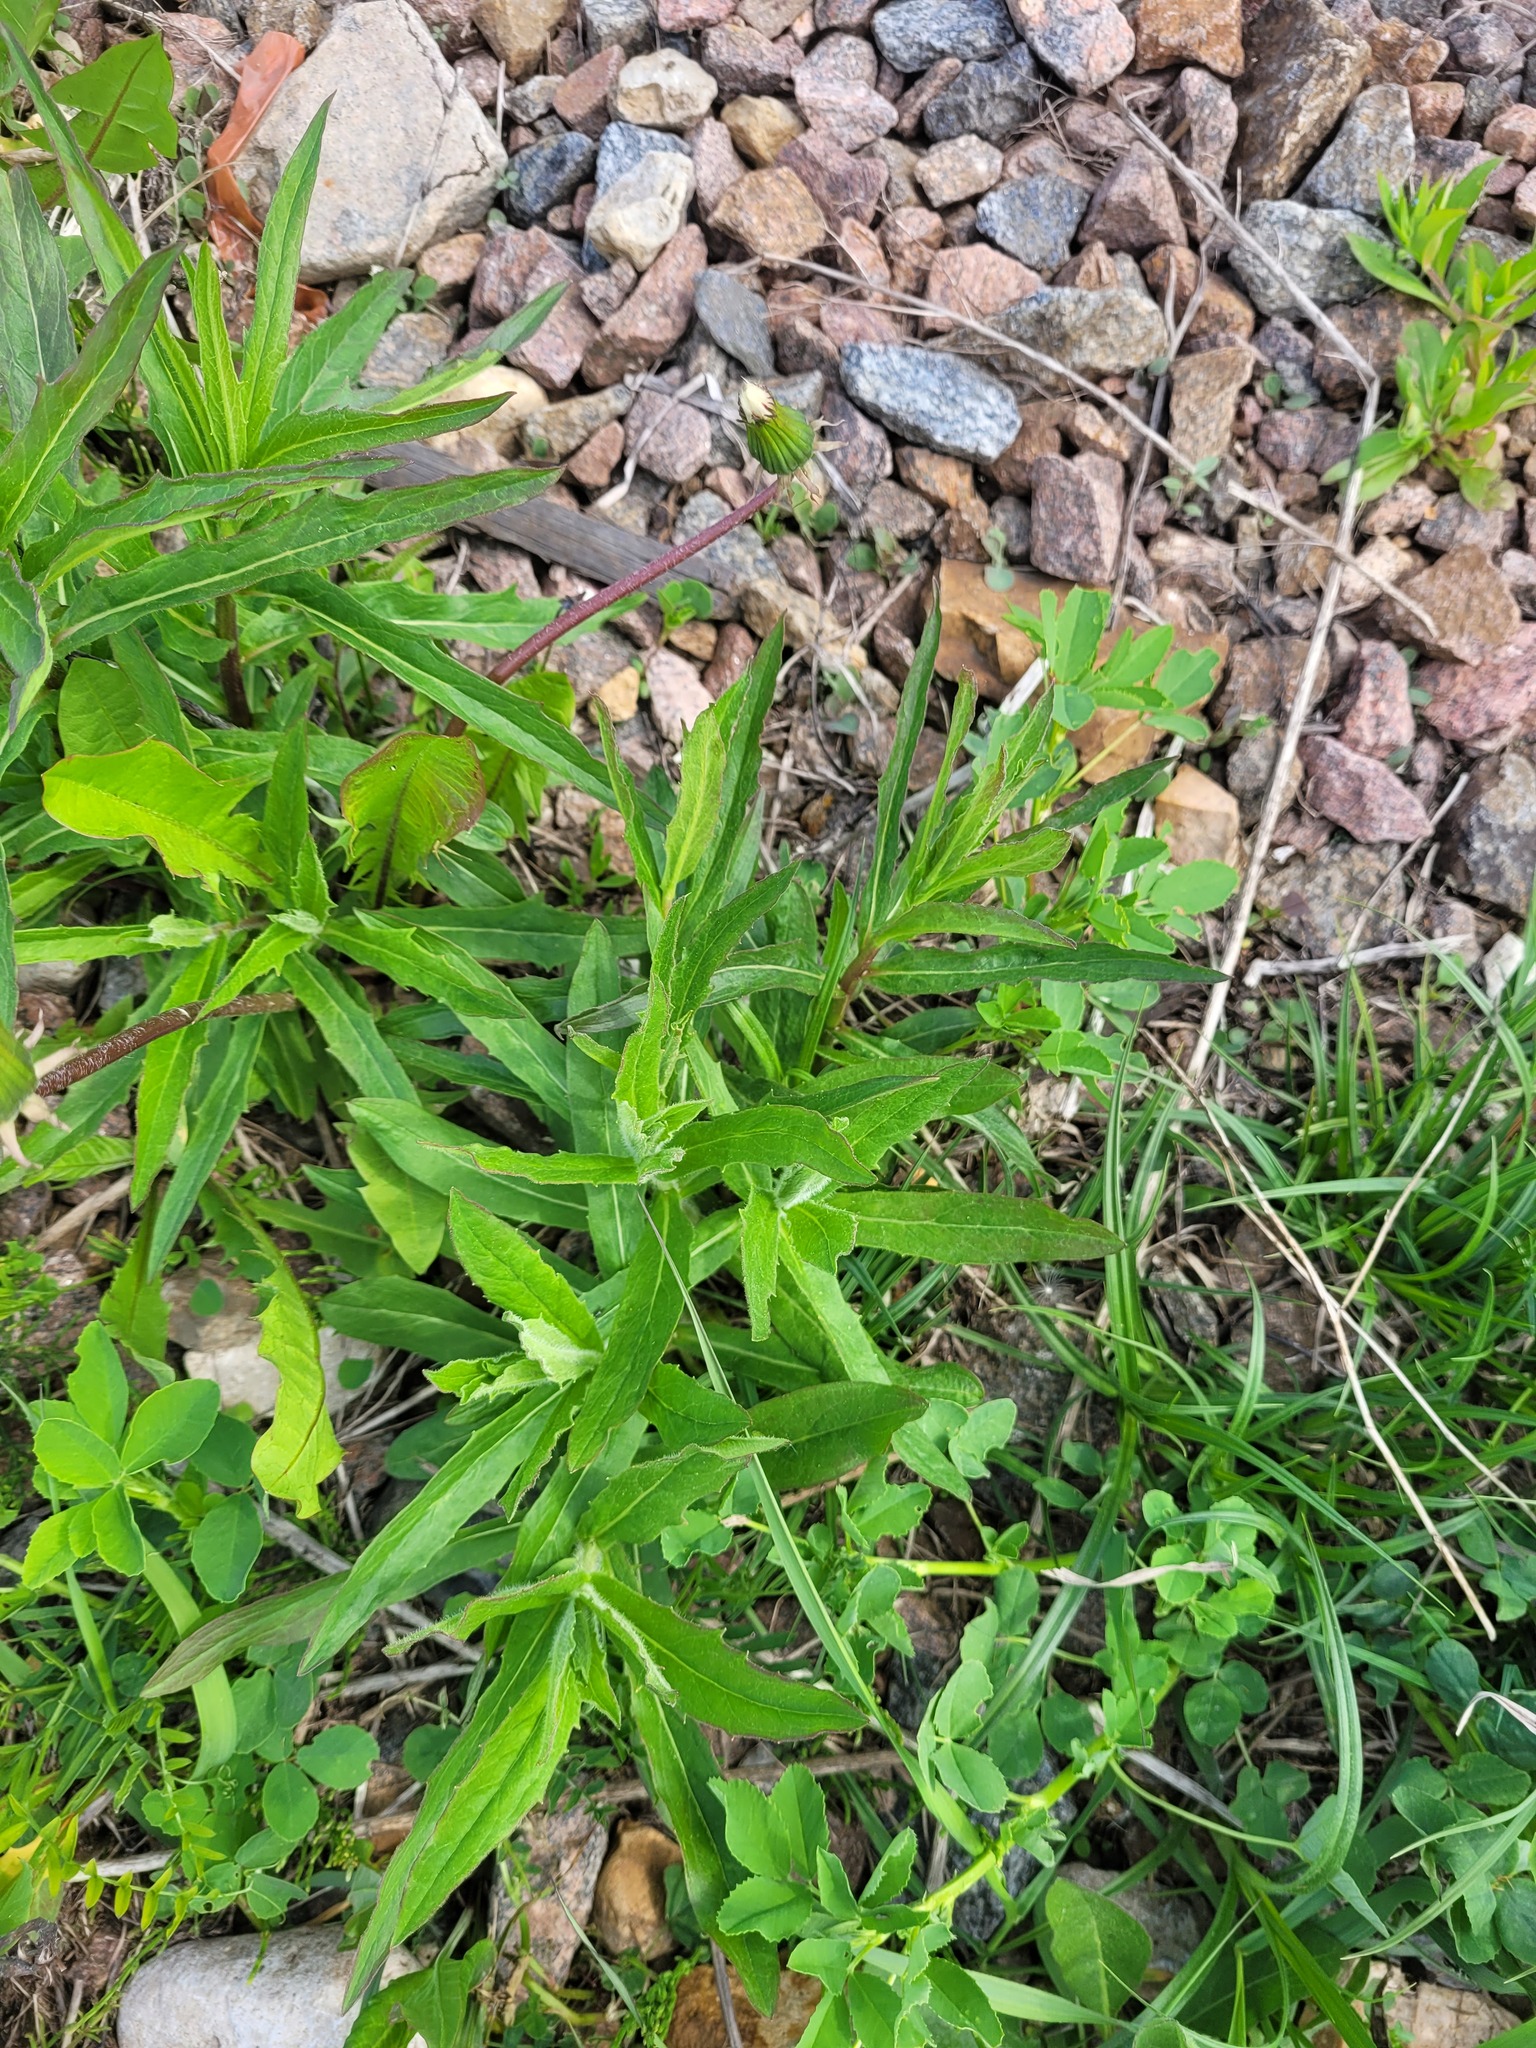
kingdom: Plantae
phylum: Tracheophyta
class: Magnoliopsida
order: Asterales
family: Asteraceae
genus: Hieracium
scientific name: Hieracium umbellatum
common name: Northern hawkweed
